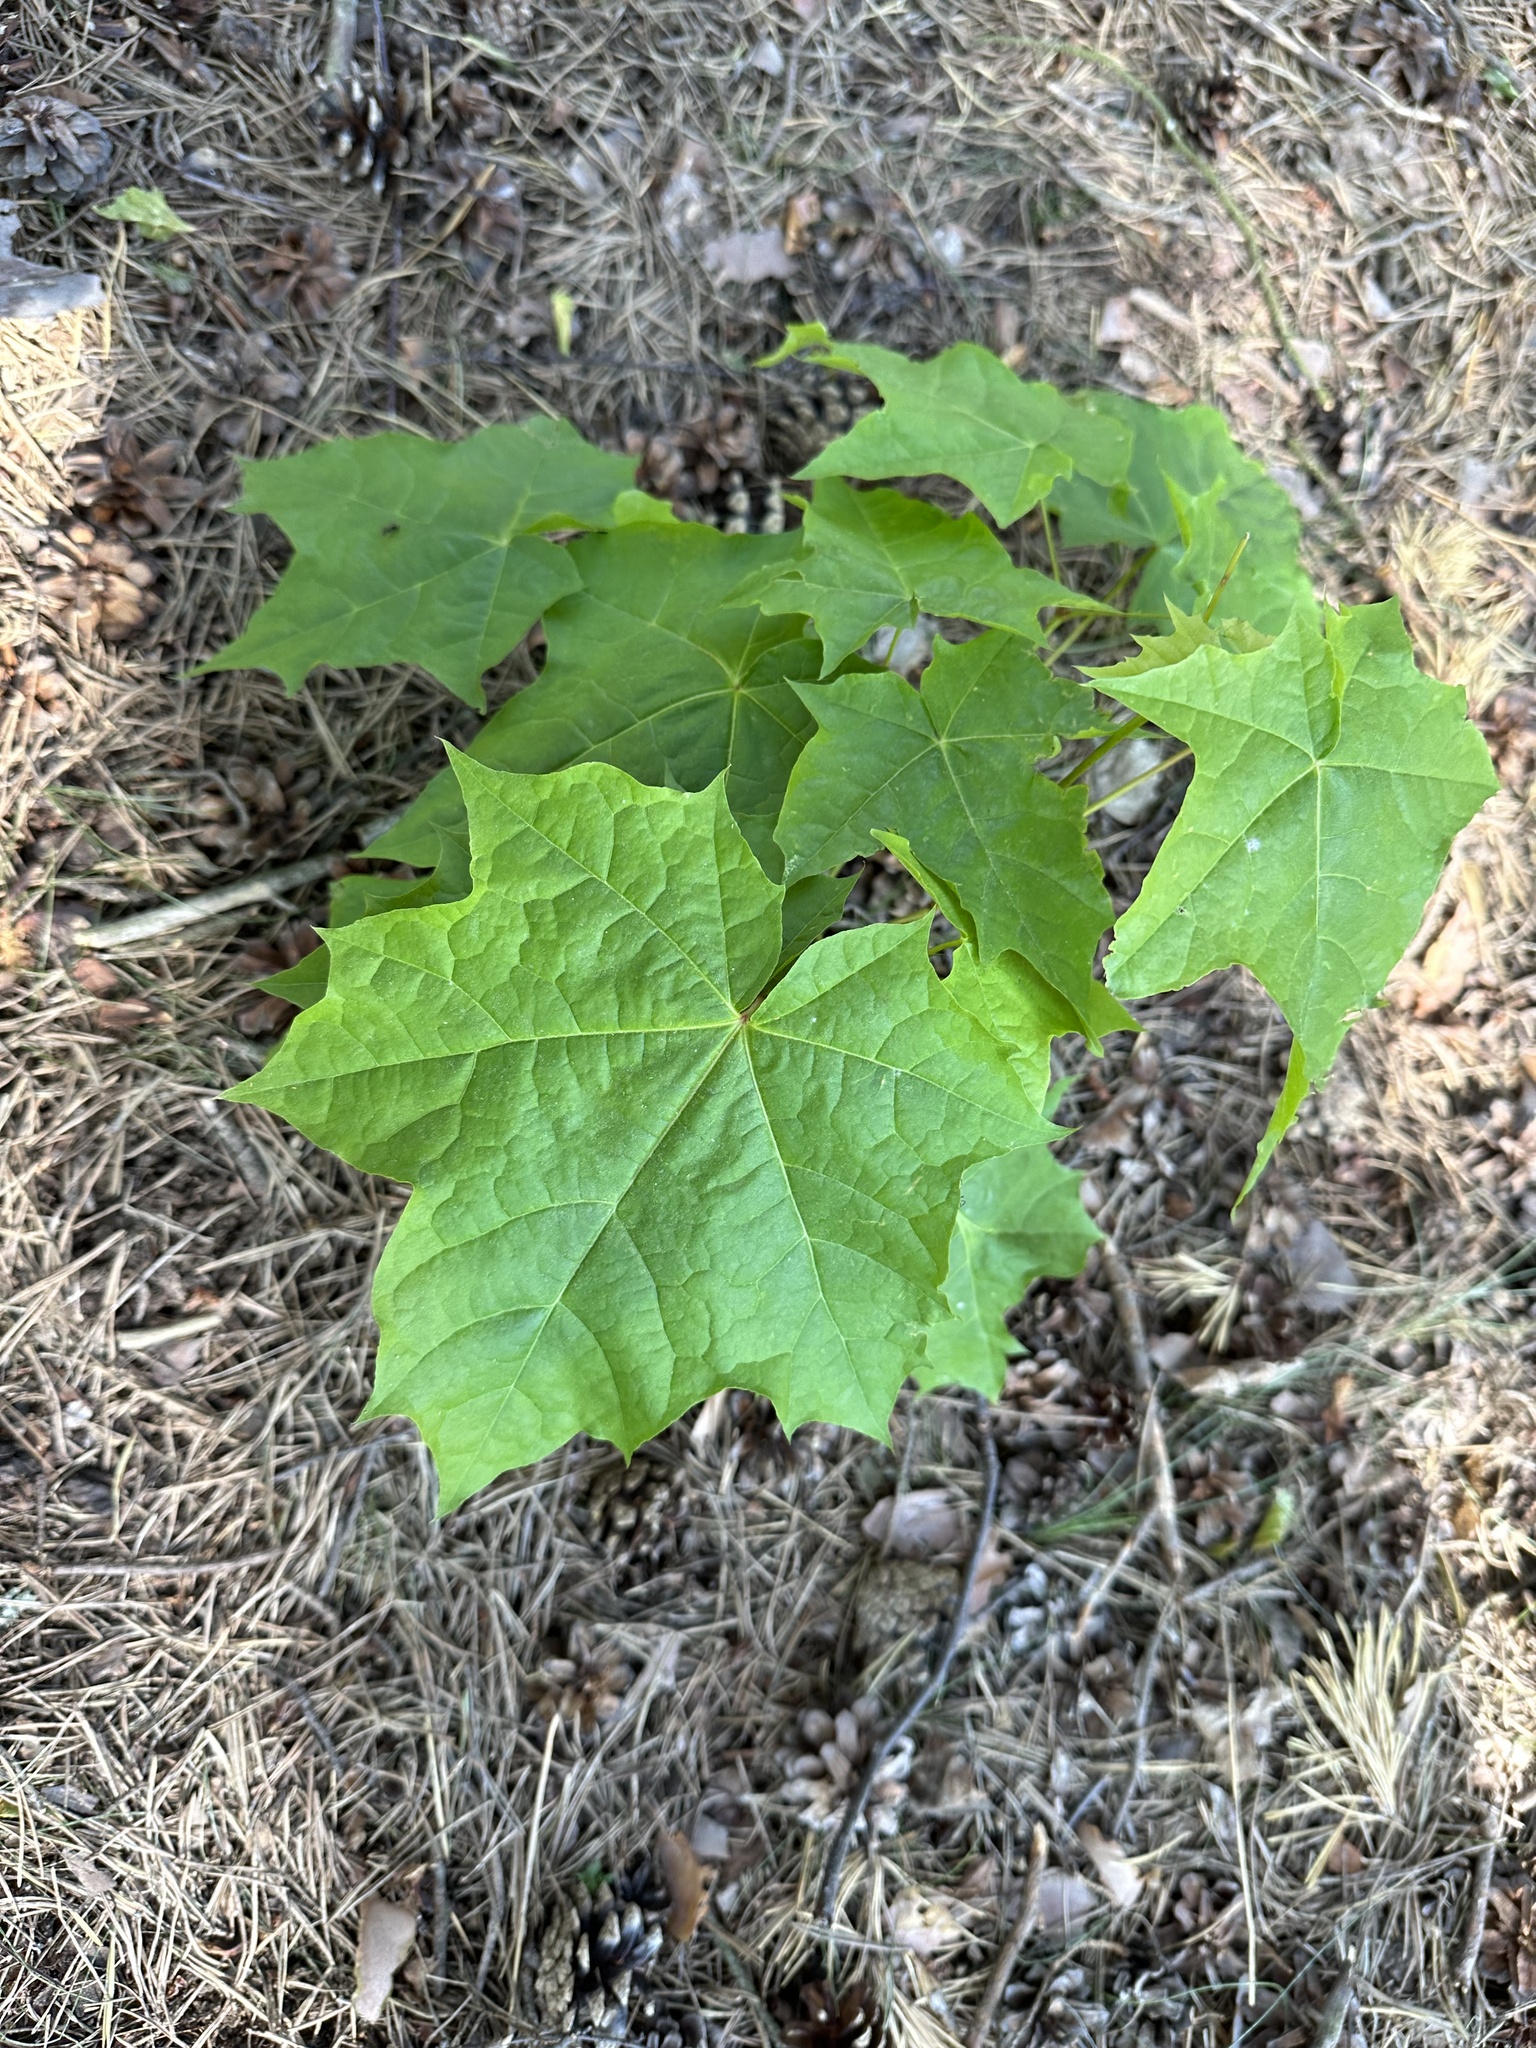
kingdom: Plantae
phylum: Tracheophyta
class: Magnoliopsida
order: Sapindales
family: Sapindaceae
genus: Acer
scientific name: Acer platanoides
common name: Norway maple
